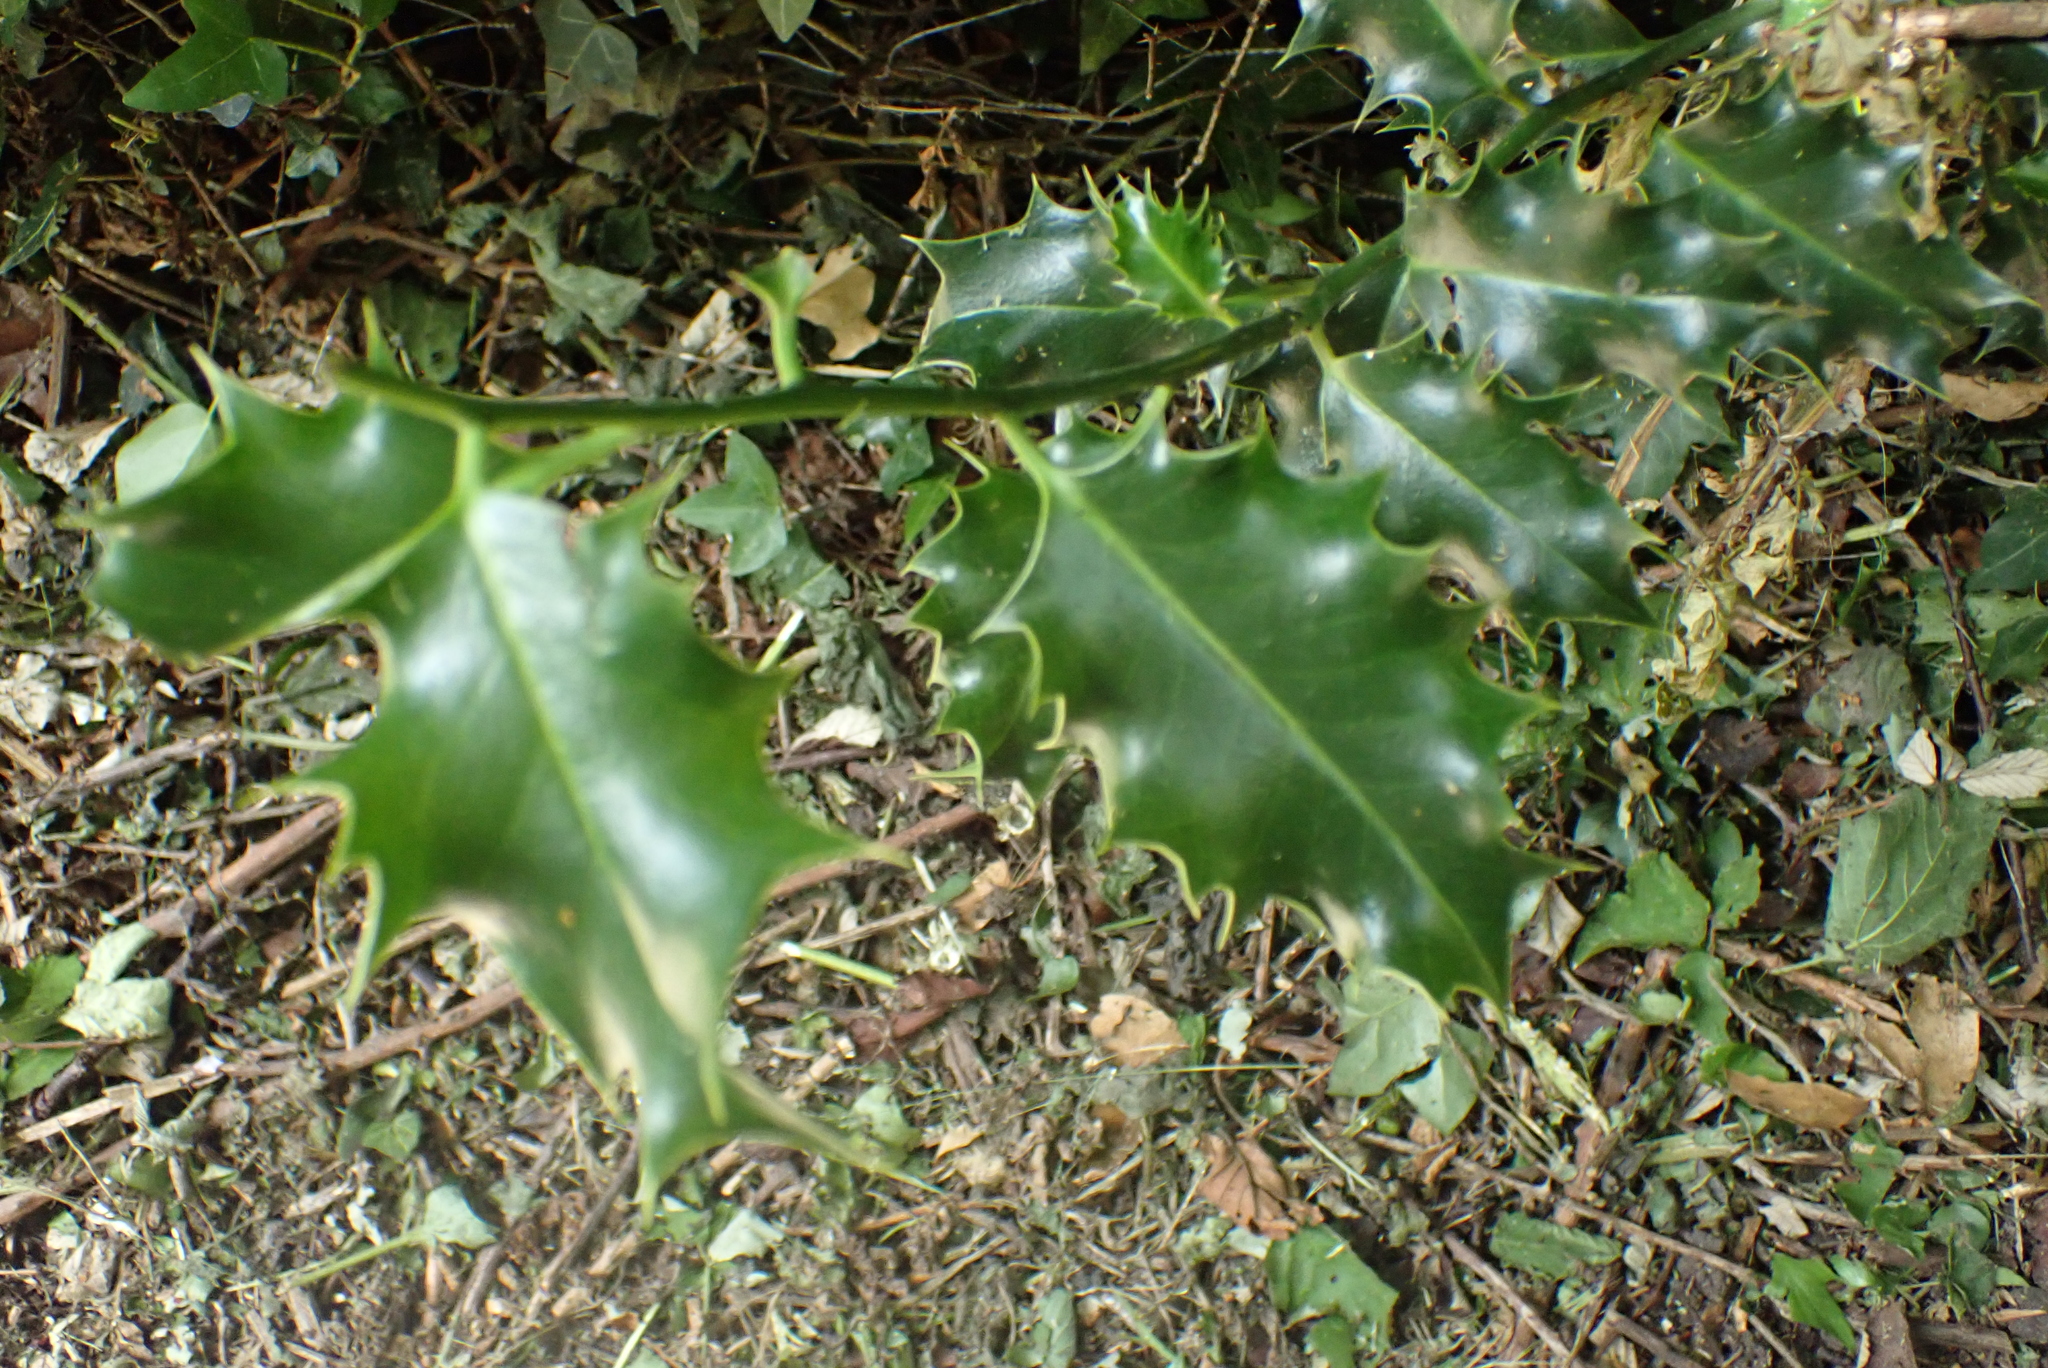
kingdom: Plantae
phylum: Tracheophyta
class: Magnoliopsida
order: Aquifoliales
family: Aquifoliaceae
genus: Ilex
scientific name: Ilex aquifolium
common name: English holly
